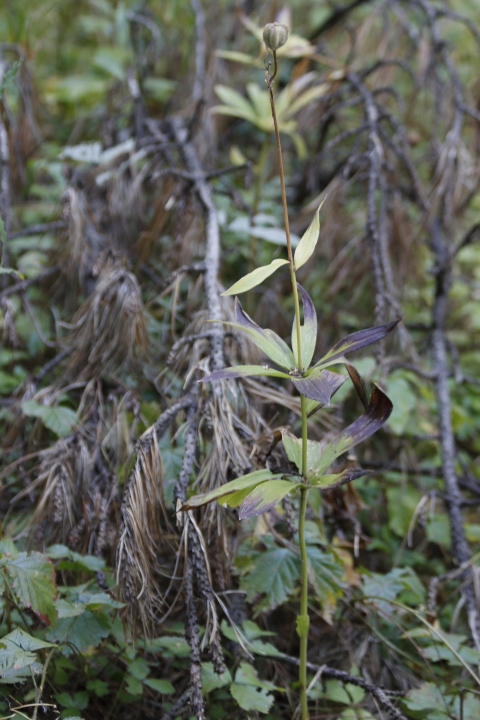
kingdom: Plantae
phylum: Tracheophyta
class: Liliopsida
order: Liliales
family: Liliaceae
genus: Lilium
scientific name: Lilium martagon
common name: Martagon lily
